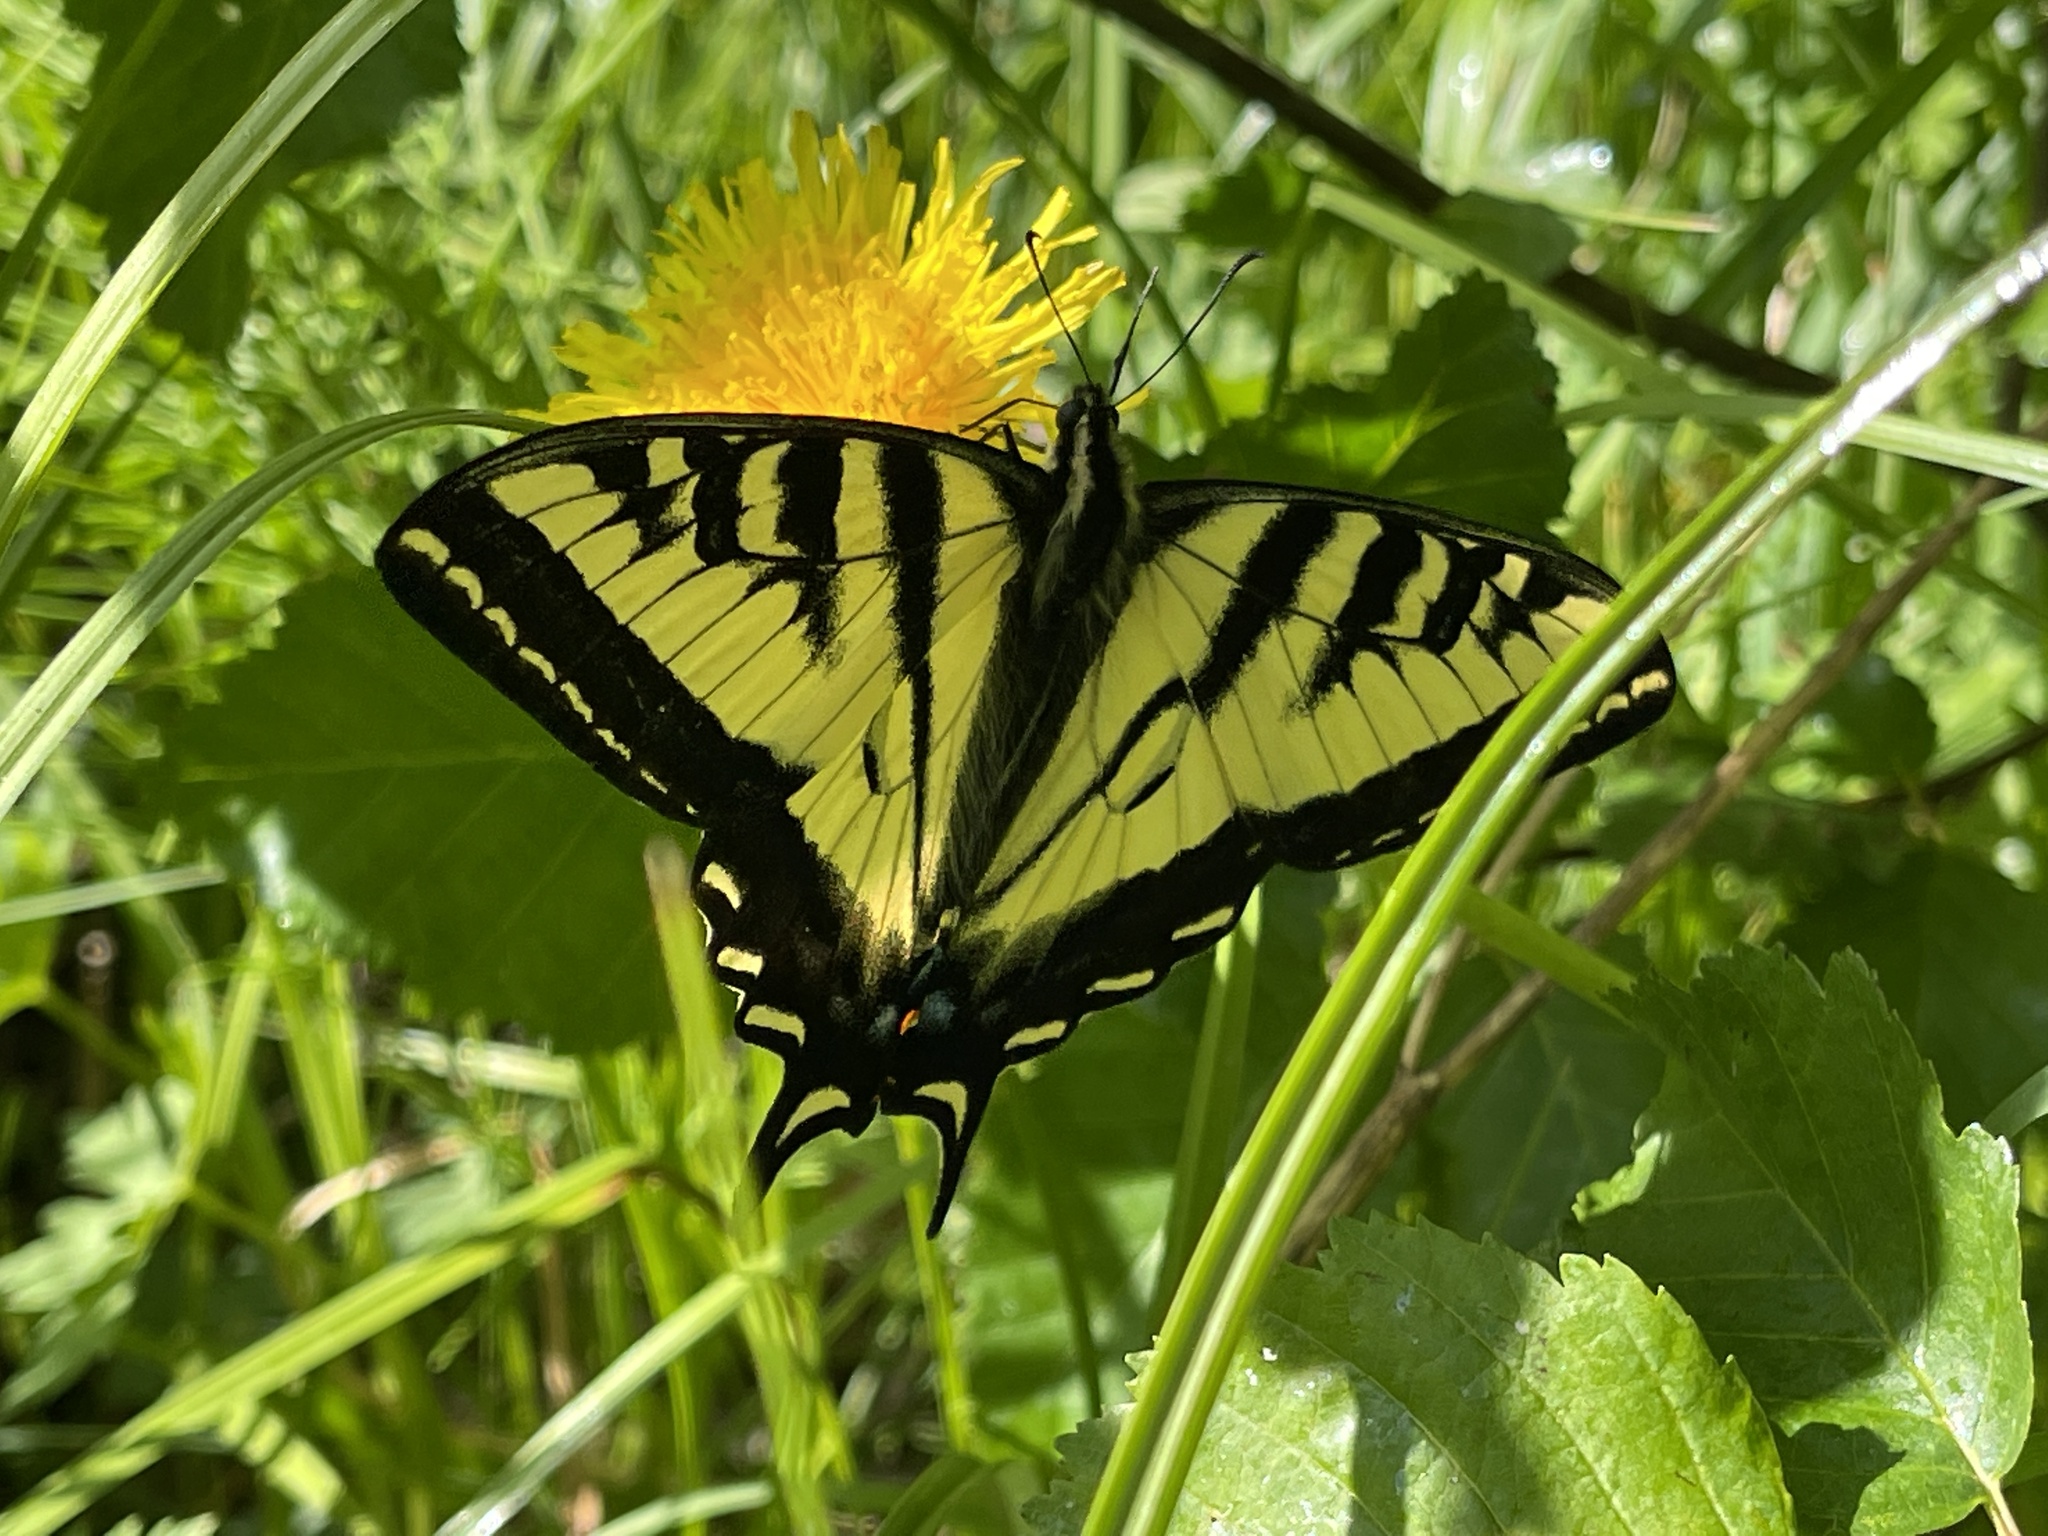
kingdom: Animalia
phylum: Arthropoda
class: Insecta
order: Lepidoptera
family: Papilionidae
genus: Papilio
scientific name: Papilio rutulus
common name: Western tiger swallowtail
